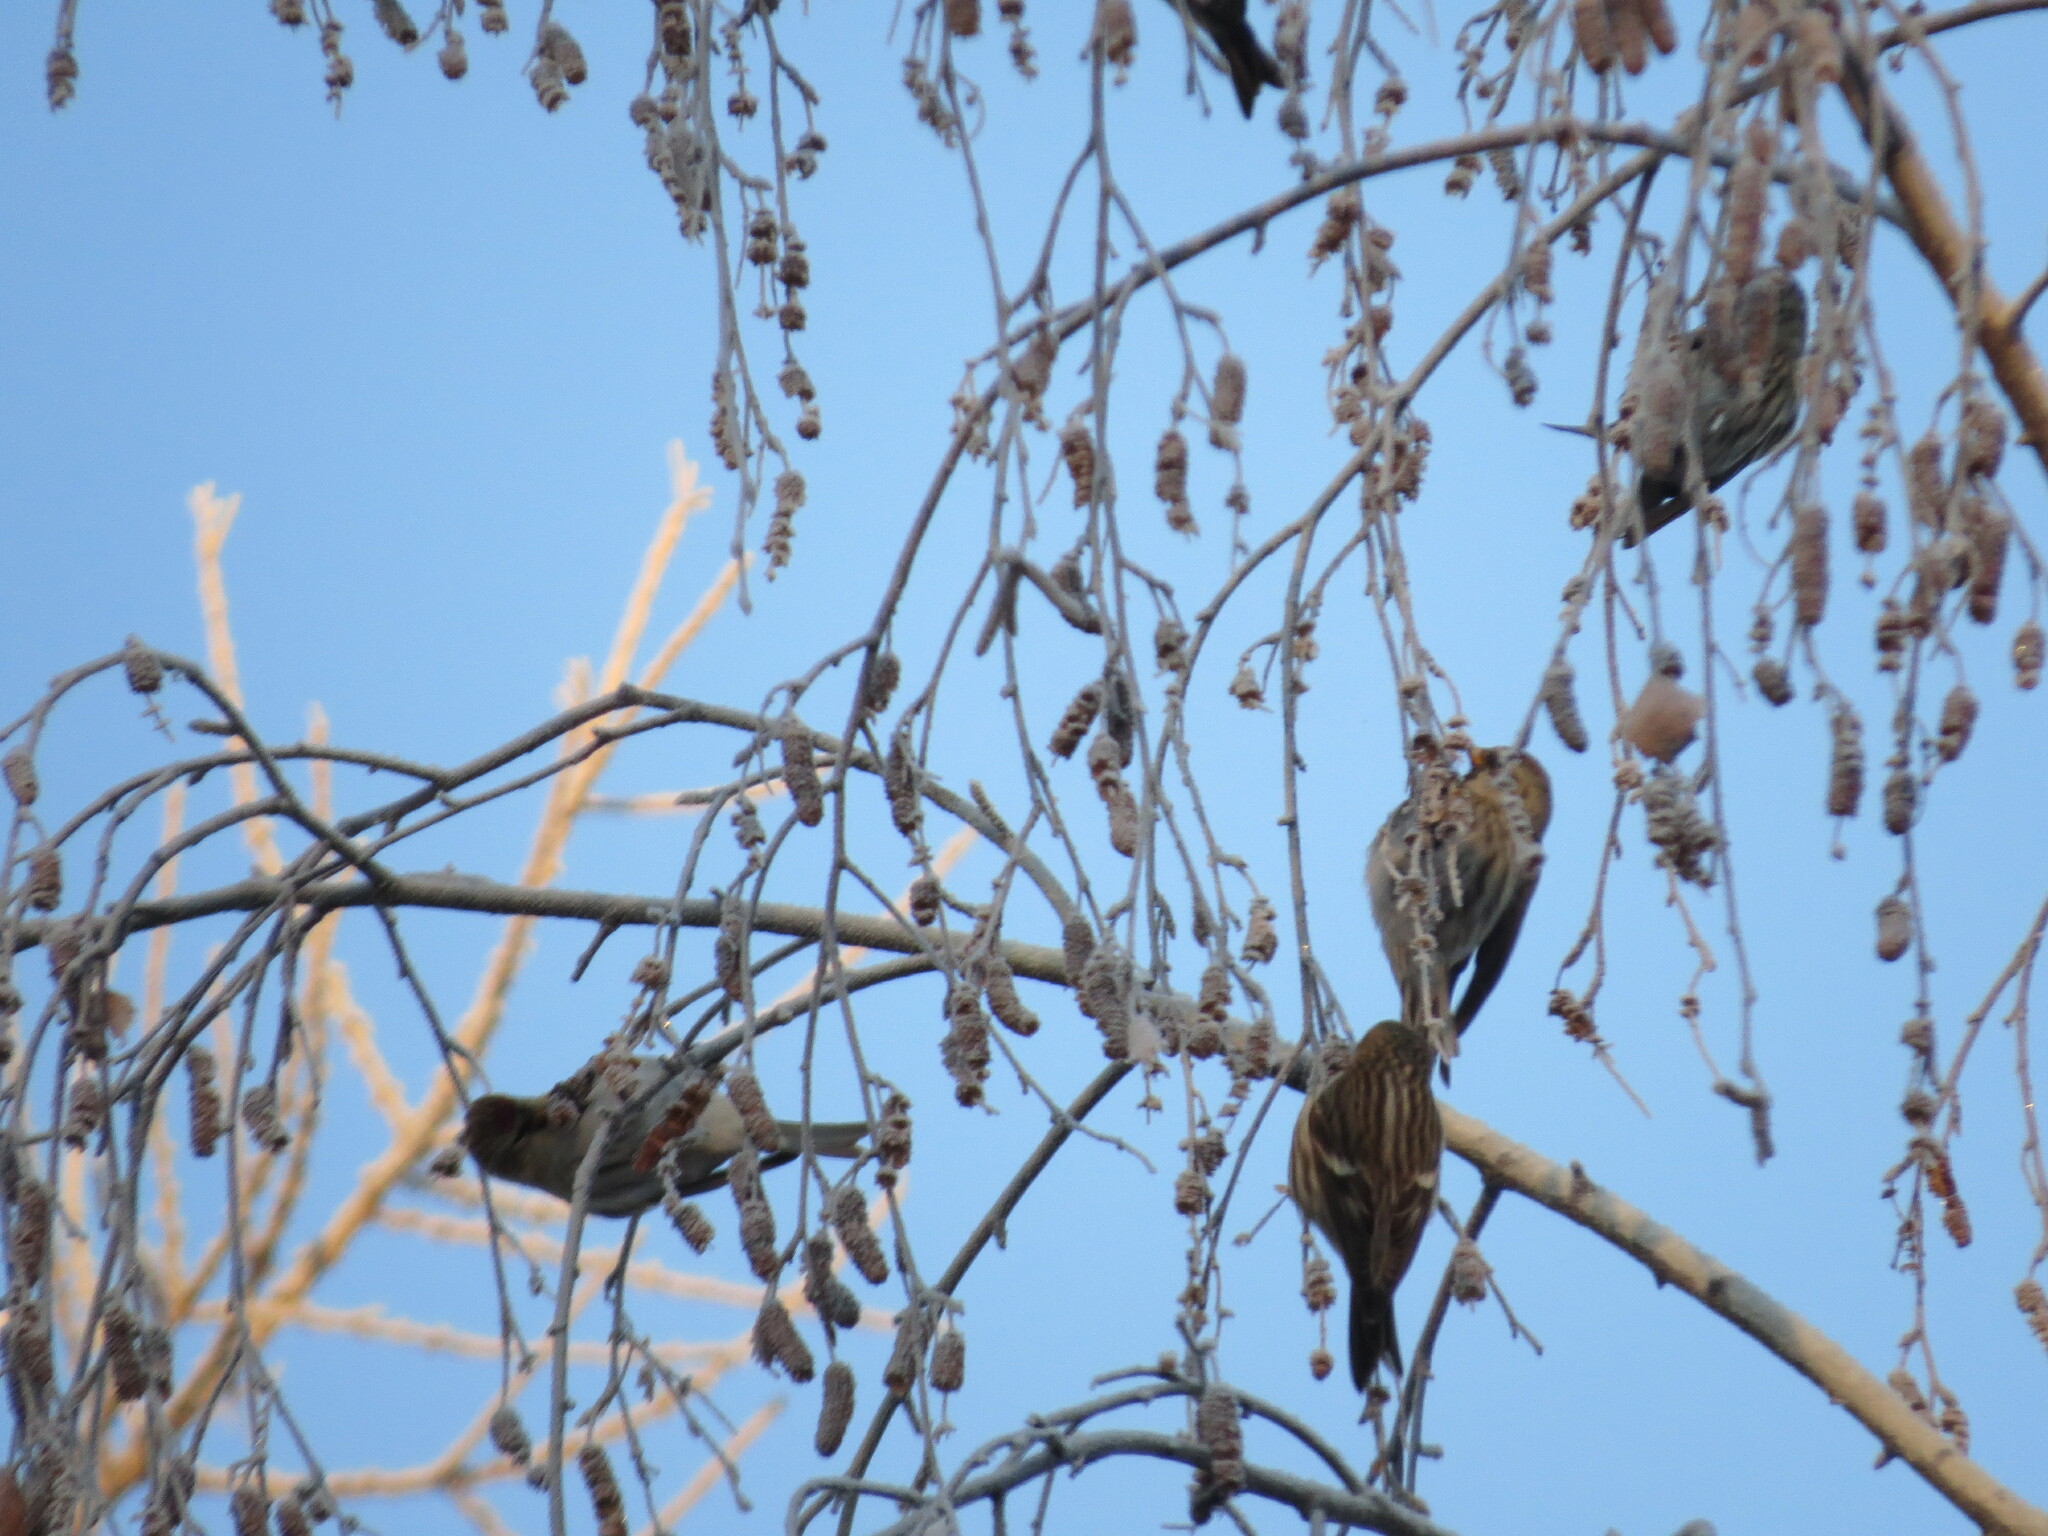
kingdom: Animalia
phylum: Chordata
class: Aves
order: Passeriformes
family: Fringillidae
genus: Acanthis
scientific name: Acanthis flammea
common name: Common redpoll
